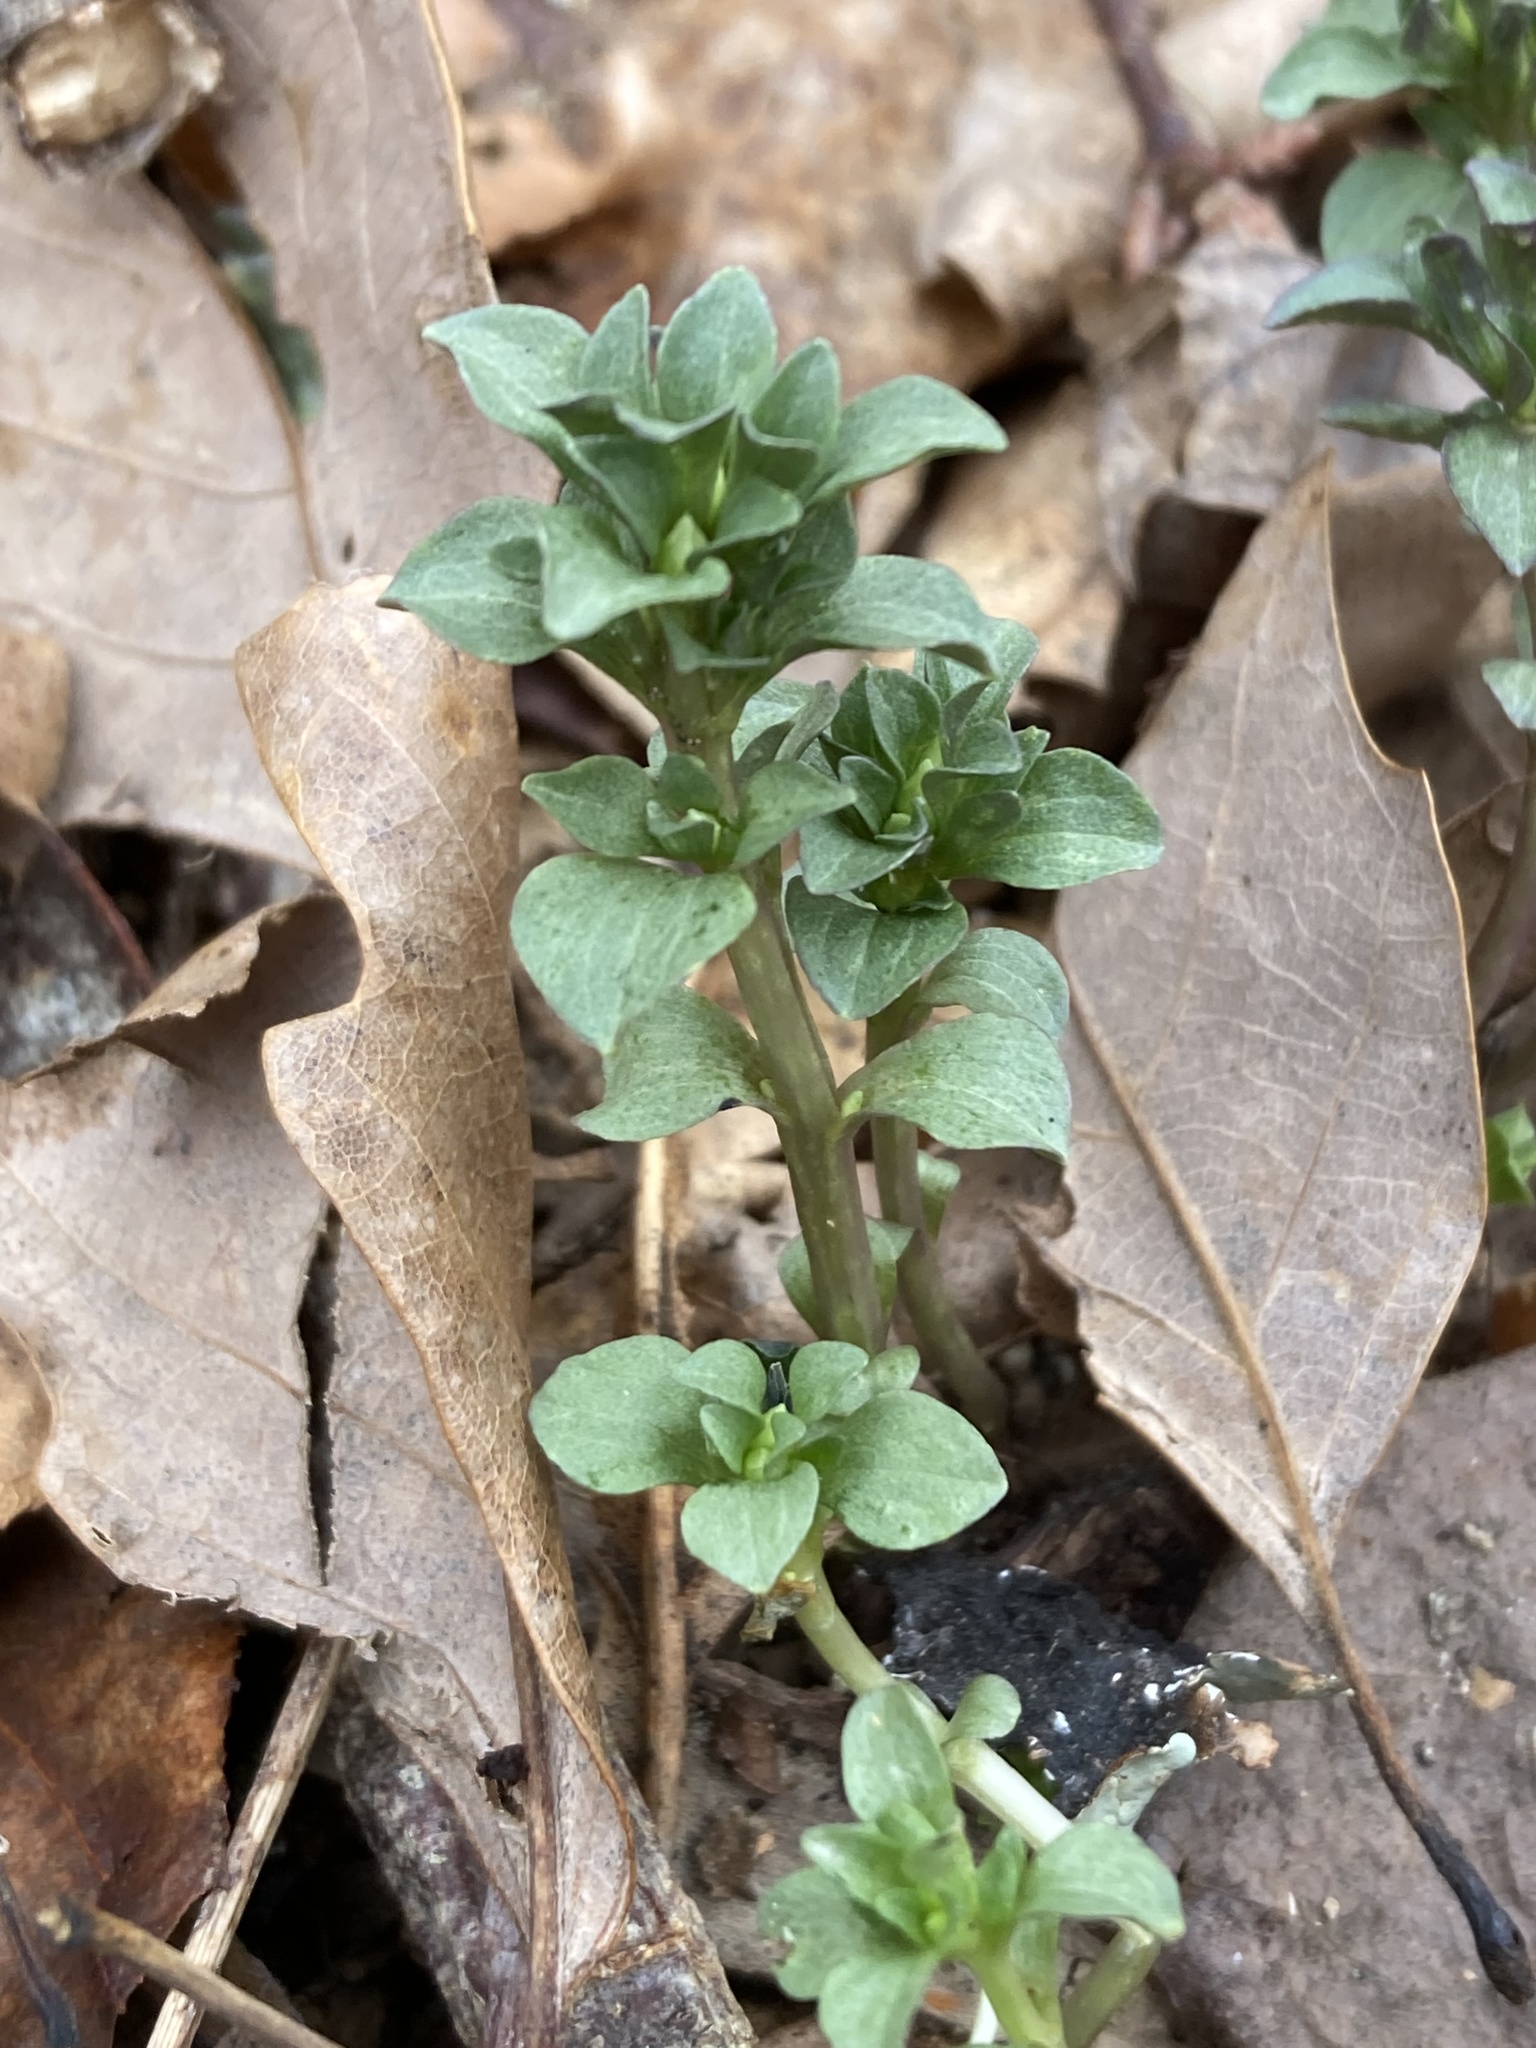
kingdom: Plantae
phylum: Tracheophyta
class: Magnoliopsida
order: Gentianales
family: Gentianaceae
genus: Obolaria
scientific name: Obolaria virginica
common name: Pennywort
